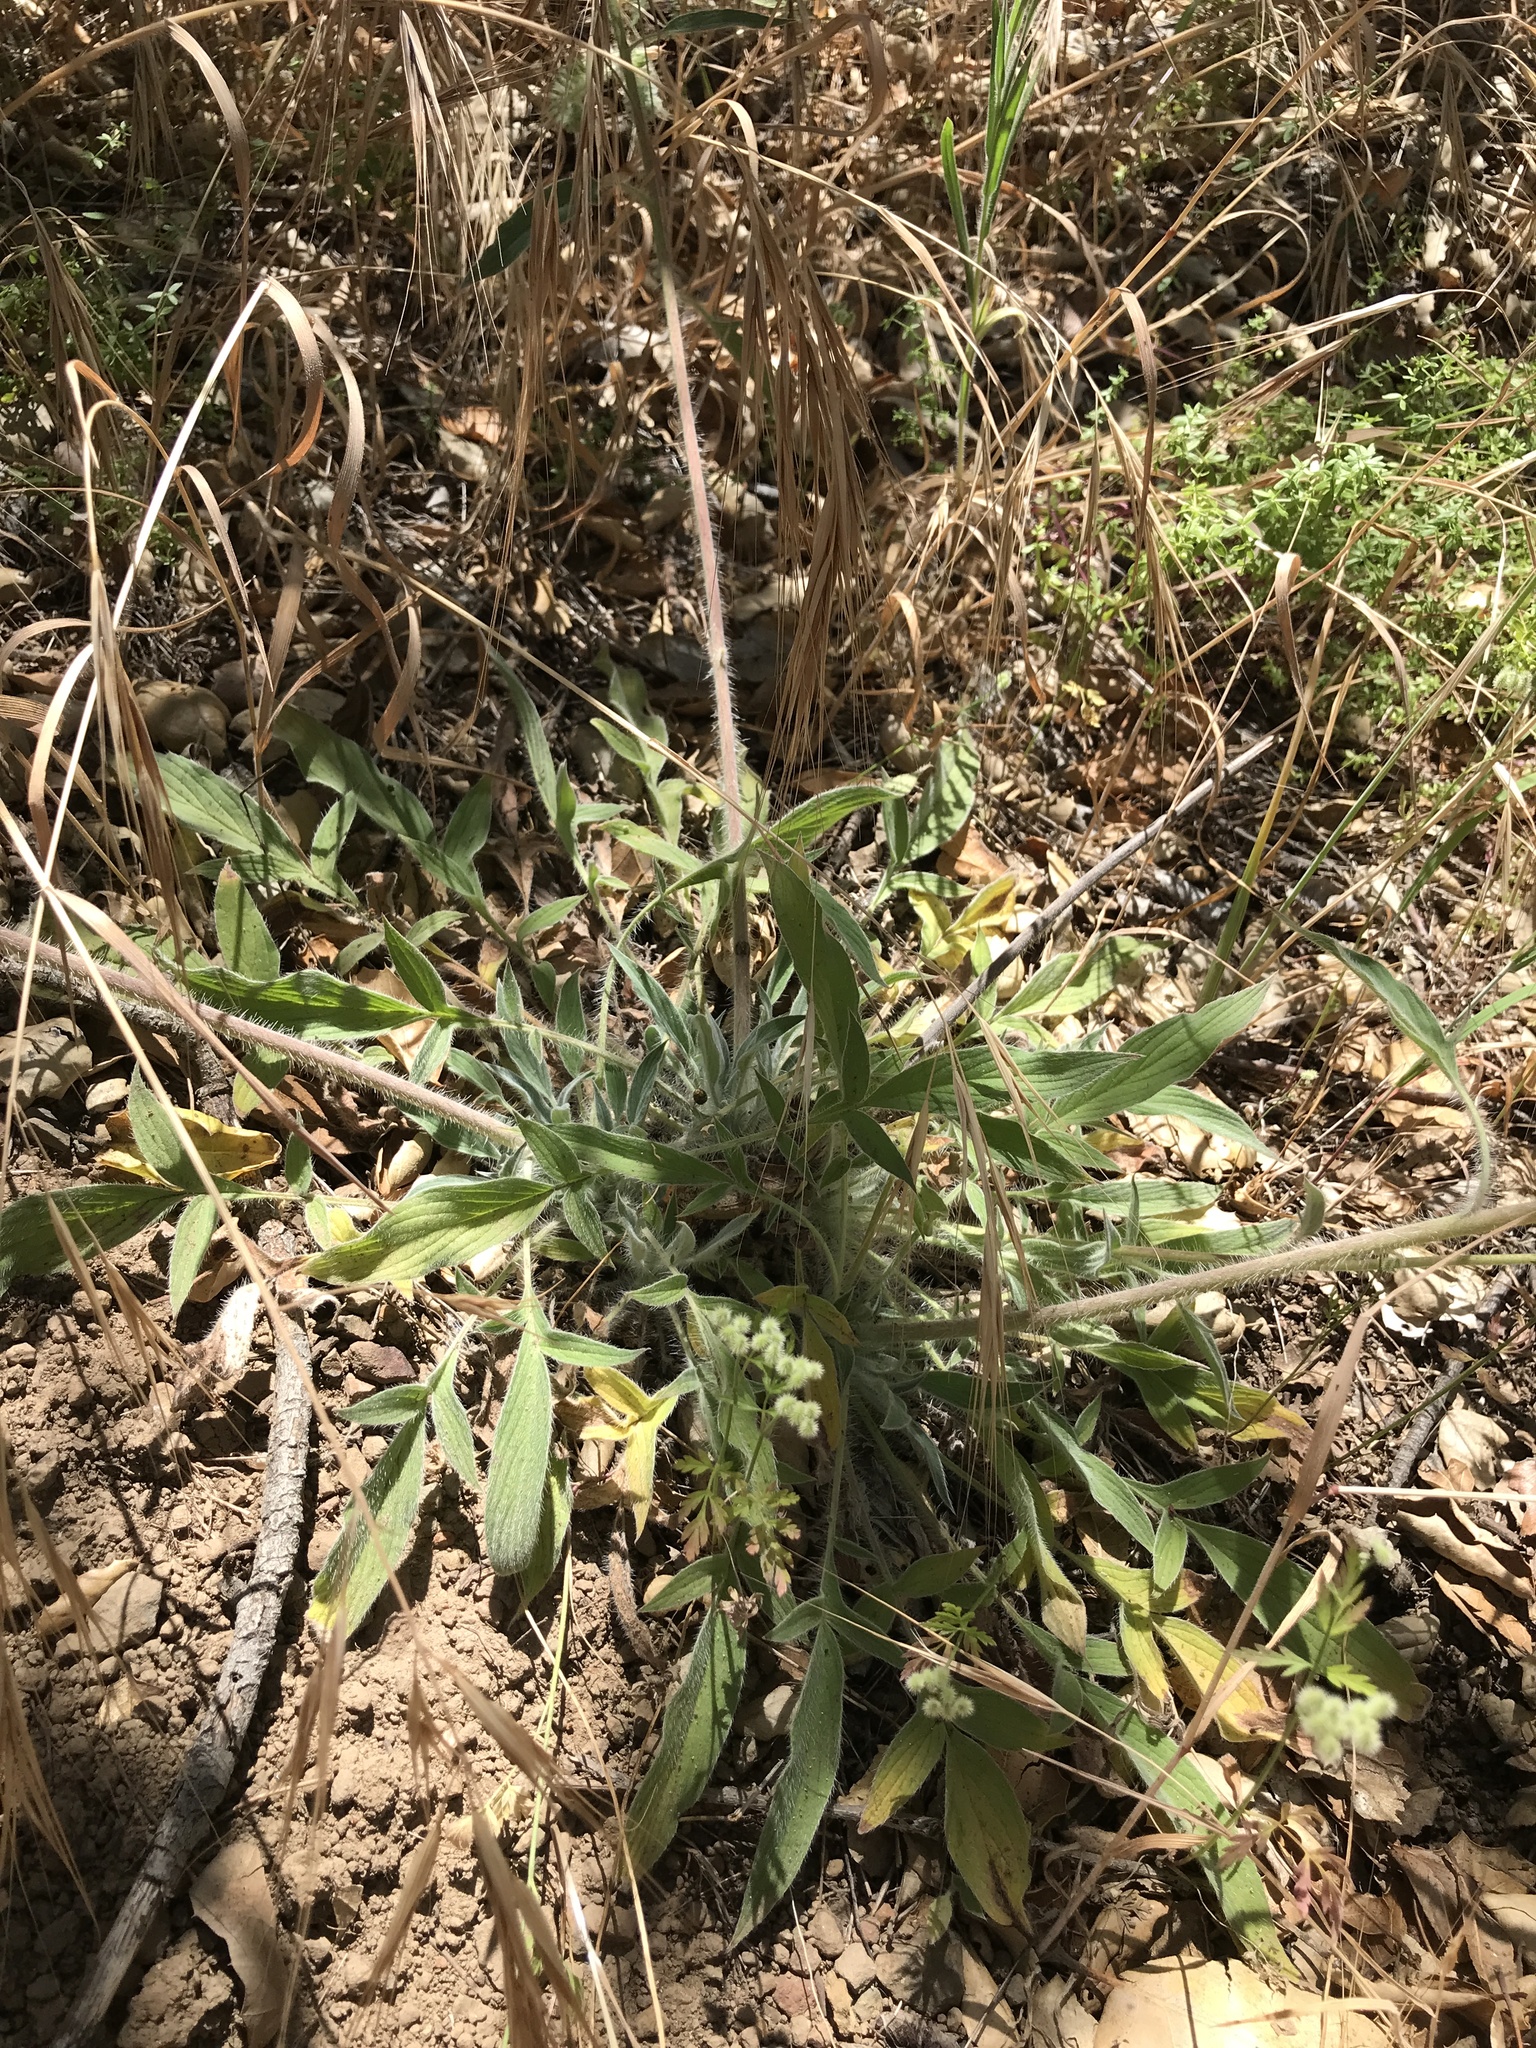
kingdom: Plantae
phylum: Tracheophyta
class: Magnoliopsida
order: Boraginales
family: Hydrophyllaceae
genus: Phacelia
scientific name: Phacelia imbricata
